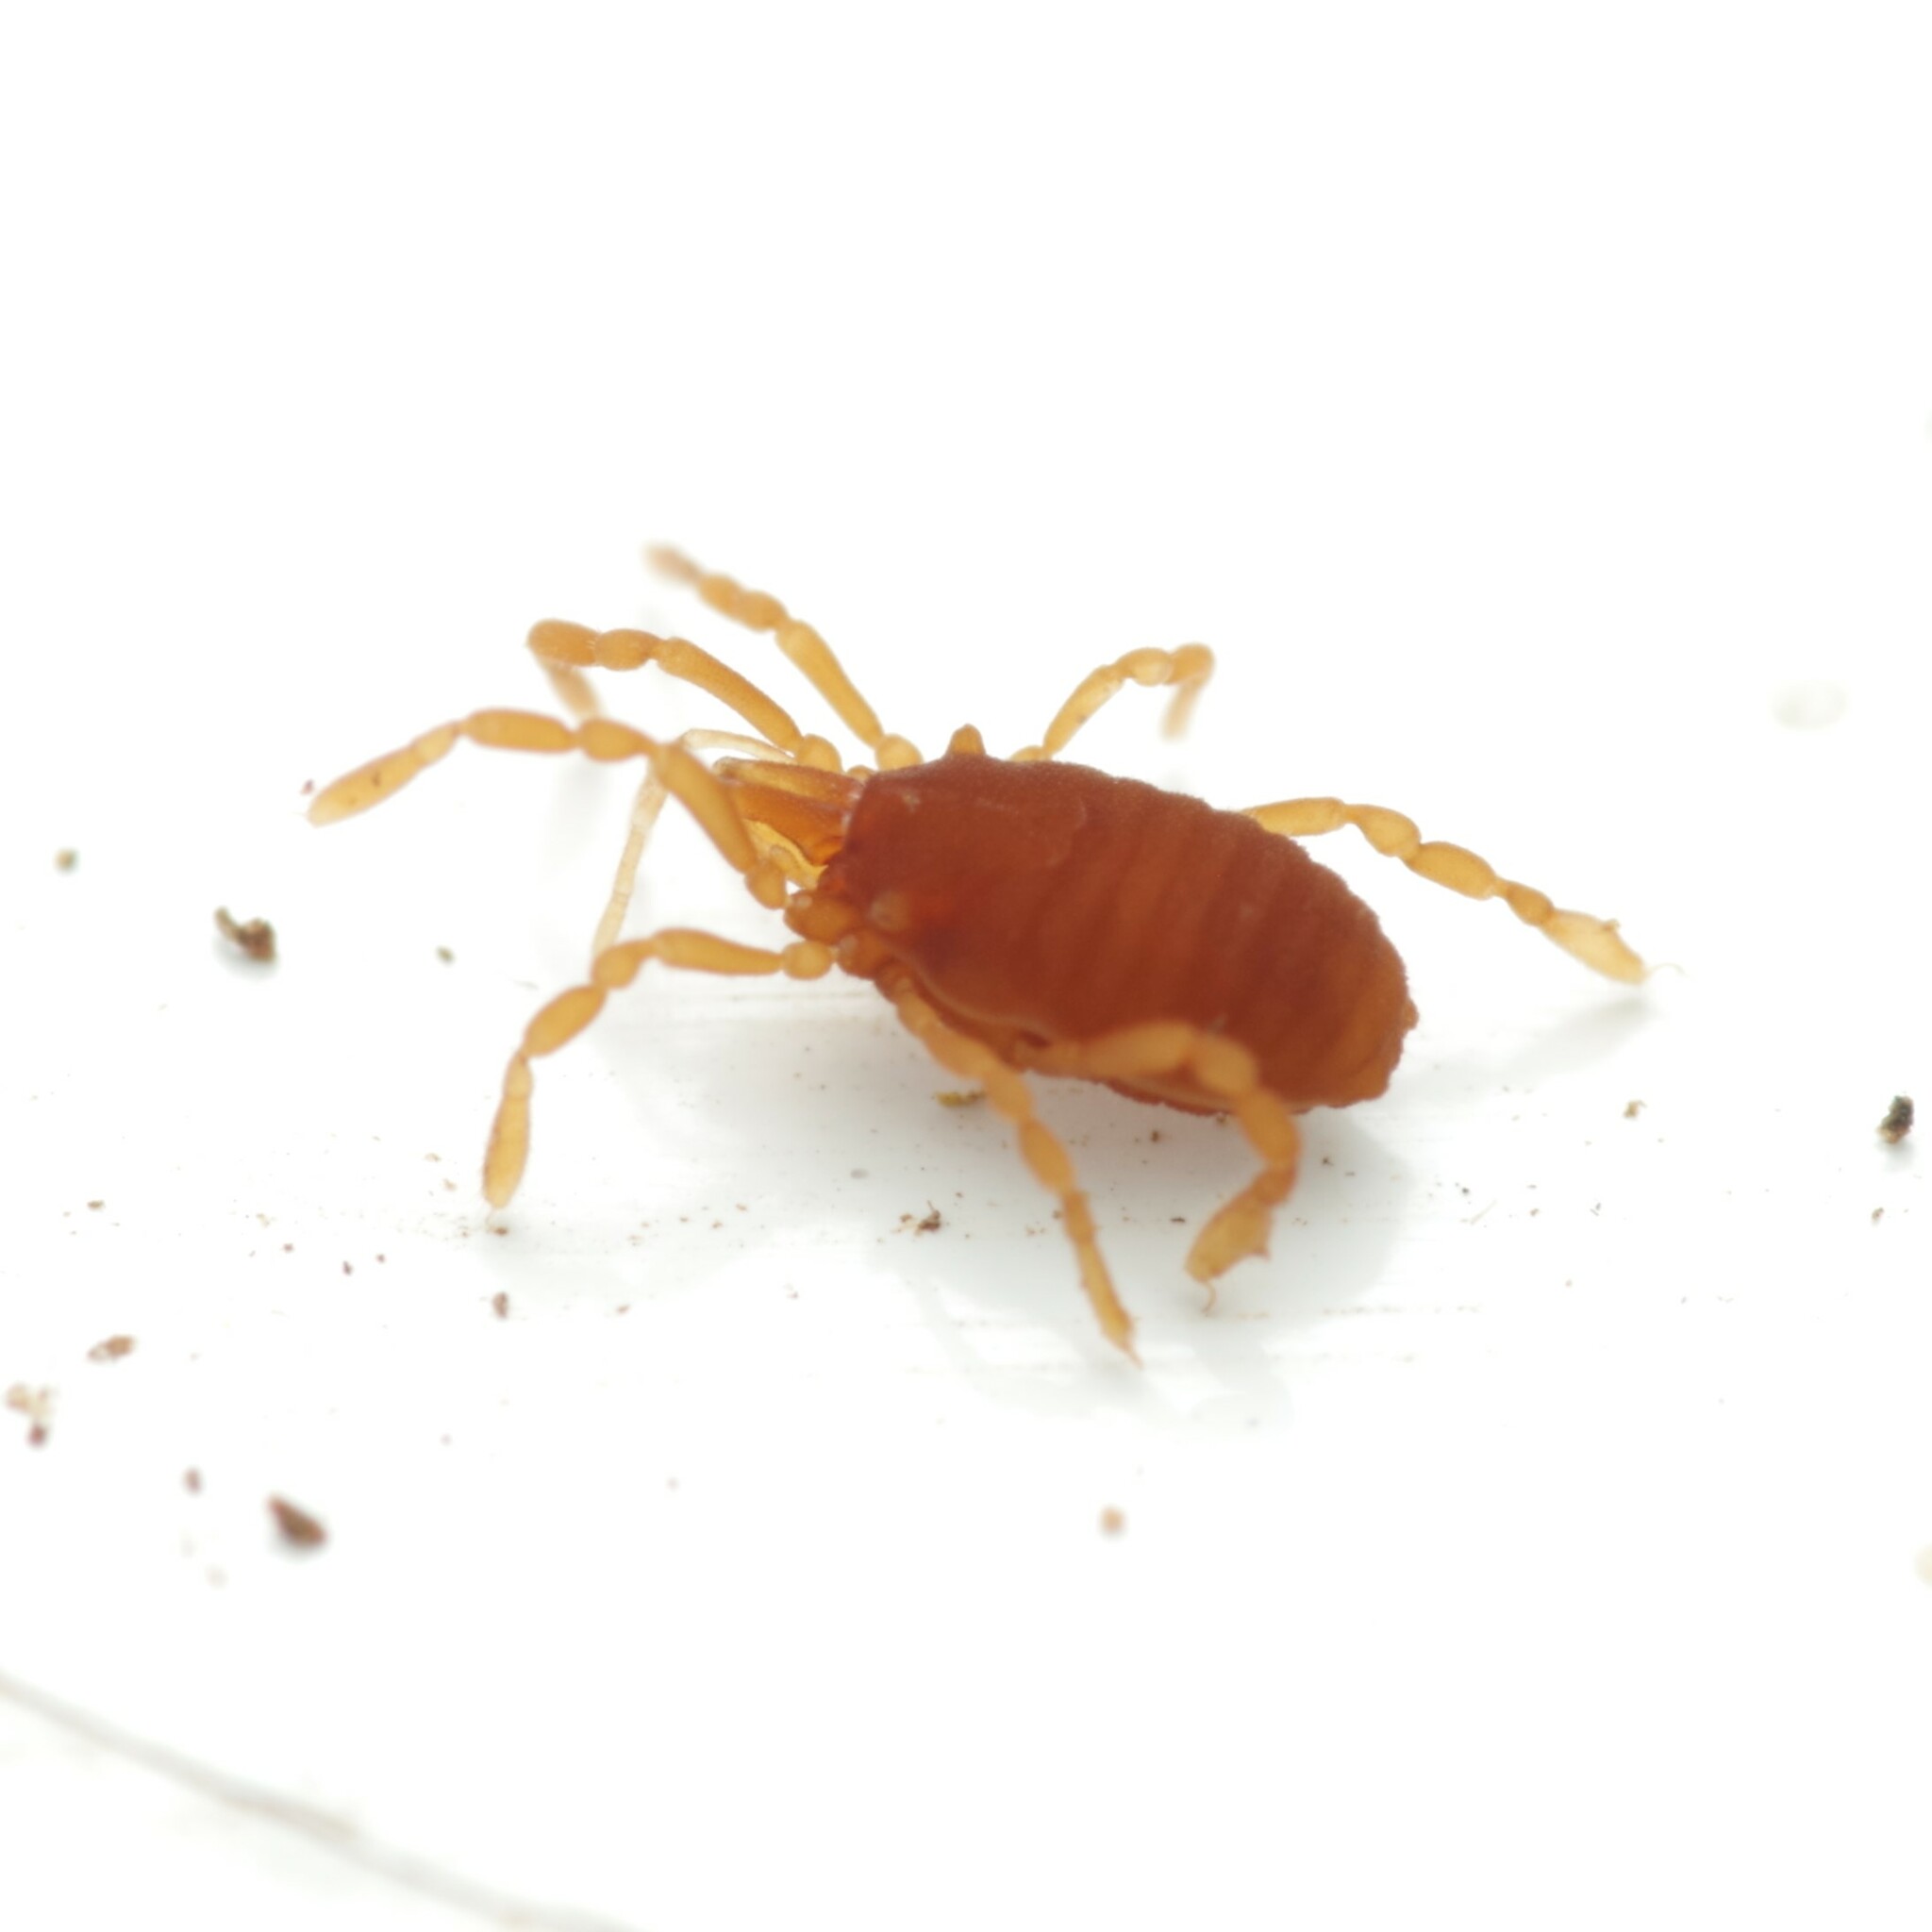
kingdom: Animalia
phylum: Arthropoda
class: Arachnida
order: Opiliones
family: Sironidae
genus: Siro
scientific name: Siro rubens
